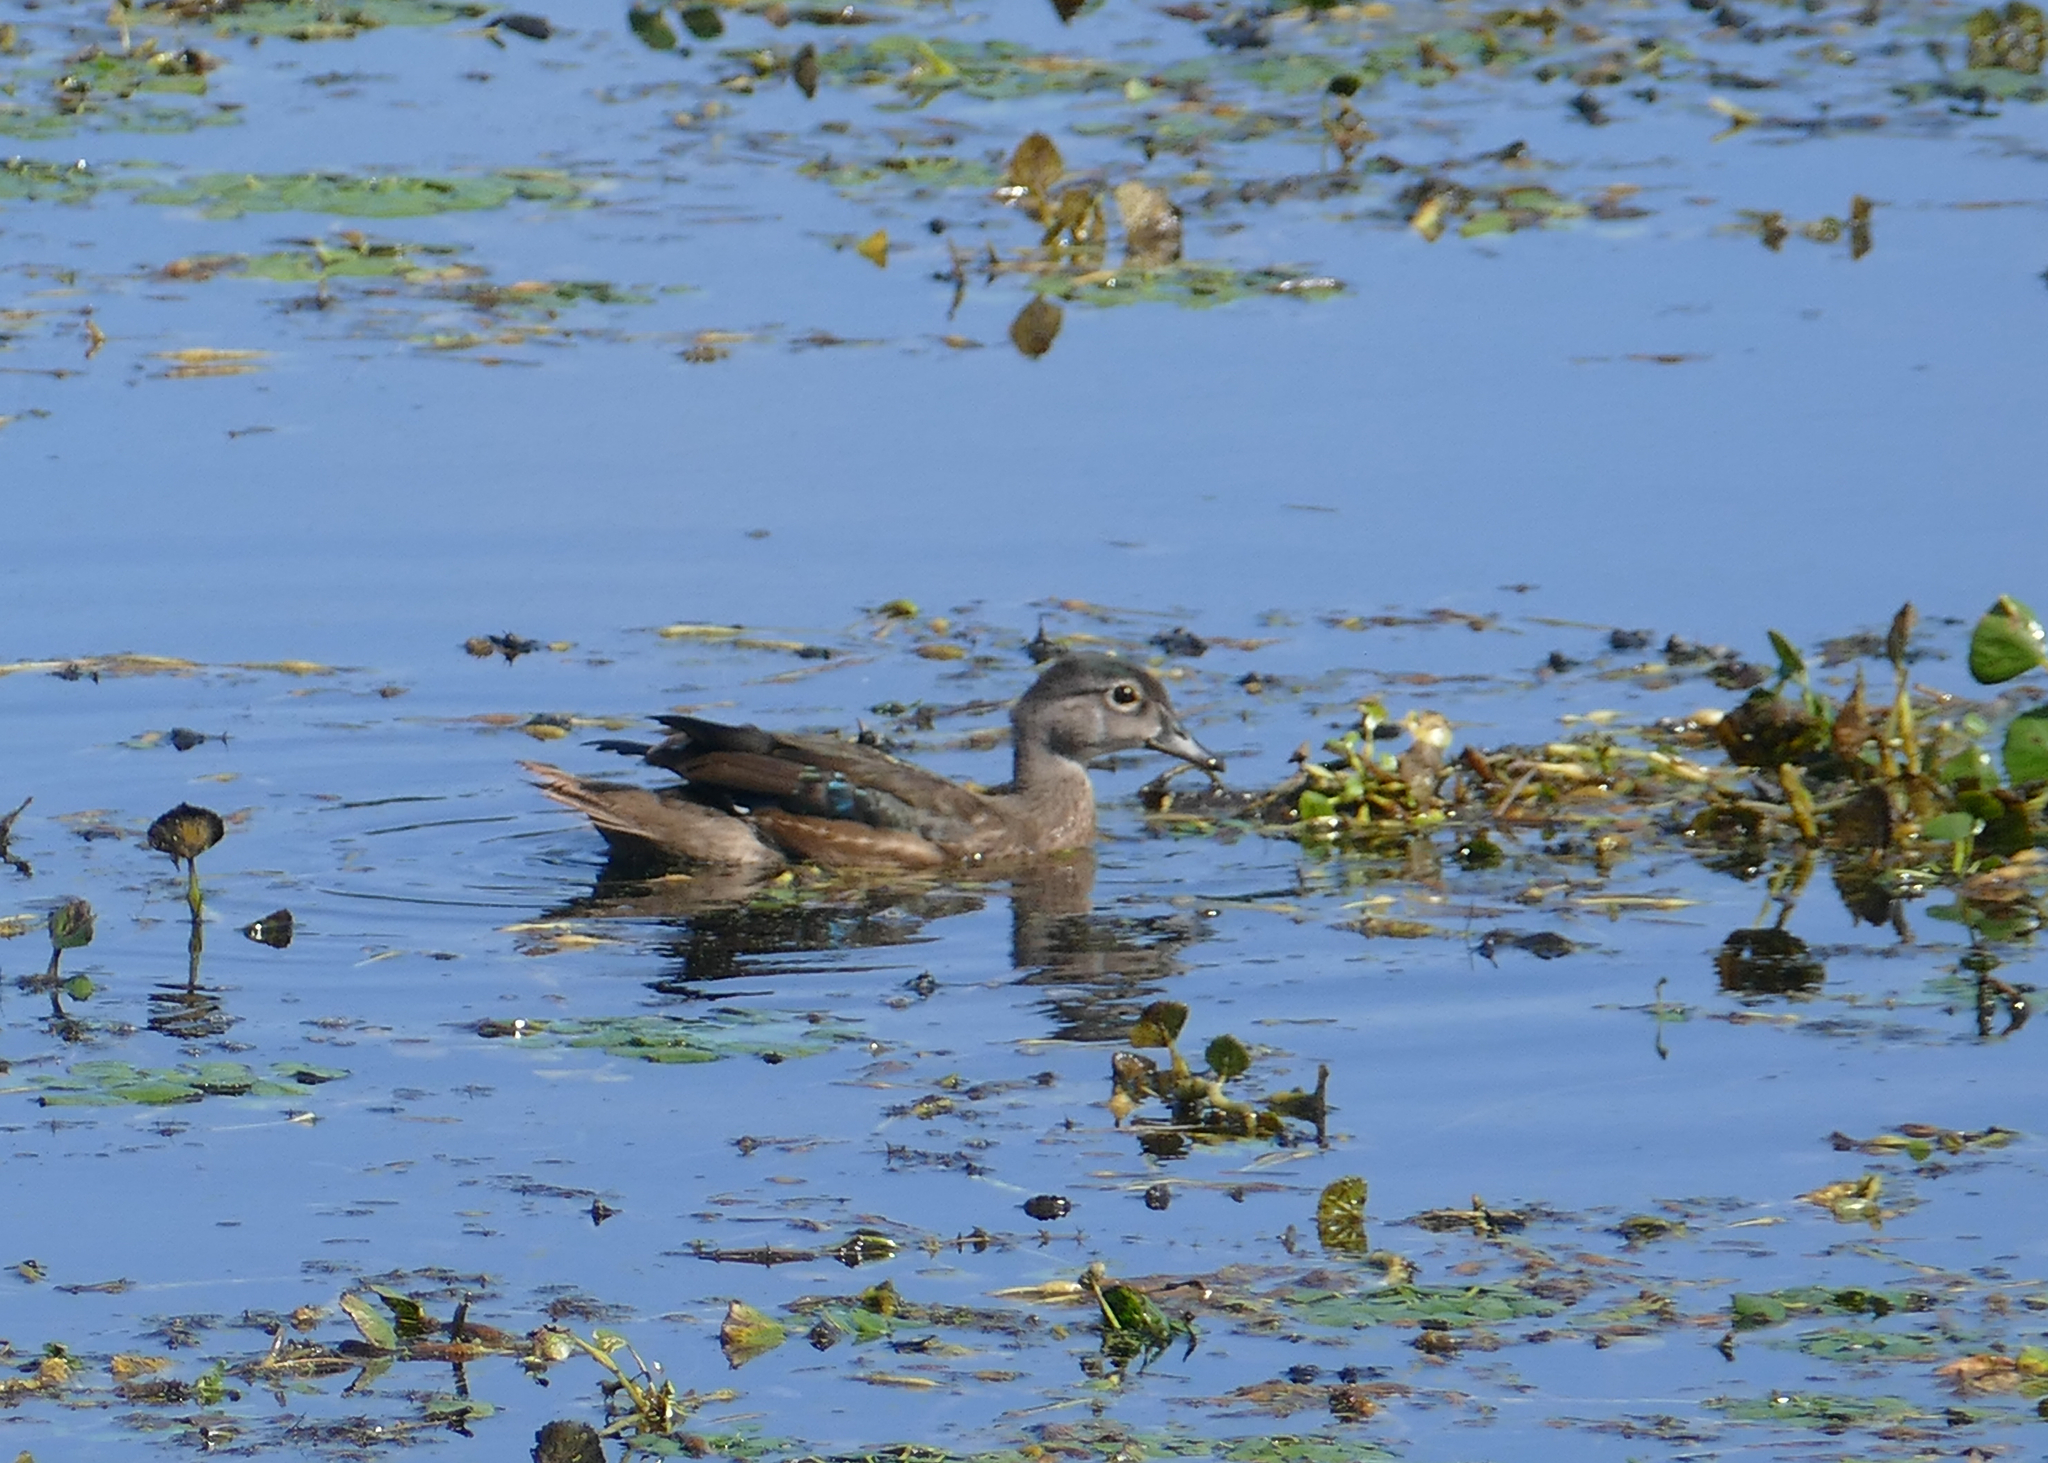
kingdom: Animalia
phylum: Chordata
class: Aves
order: Anseriformes
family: Anatidae
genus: Aix
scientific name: Aix sponsa
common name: Wood duck
